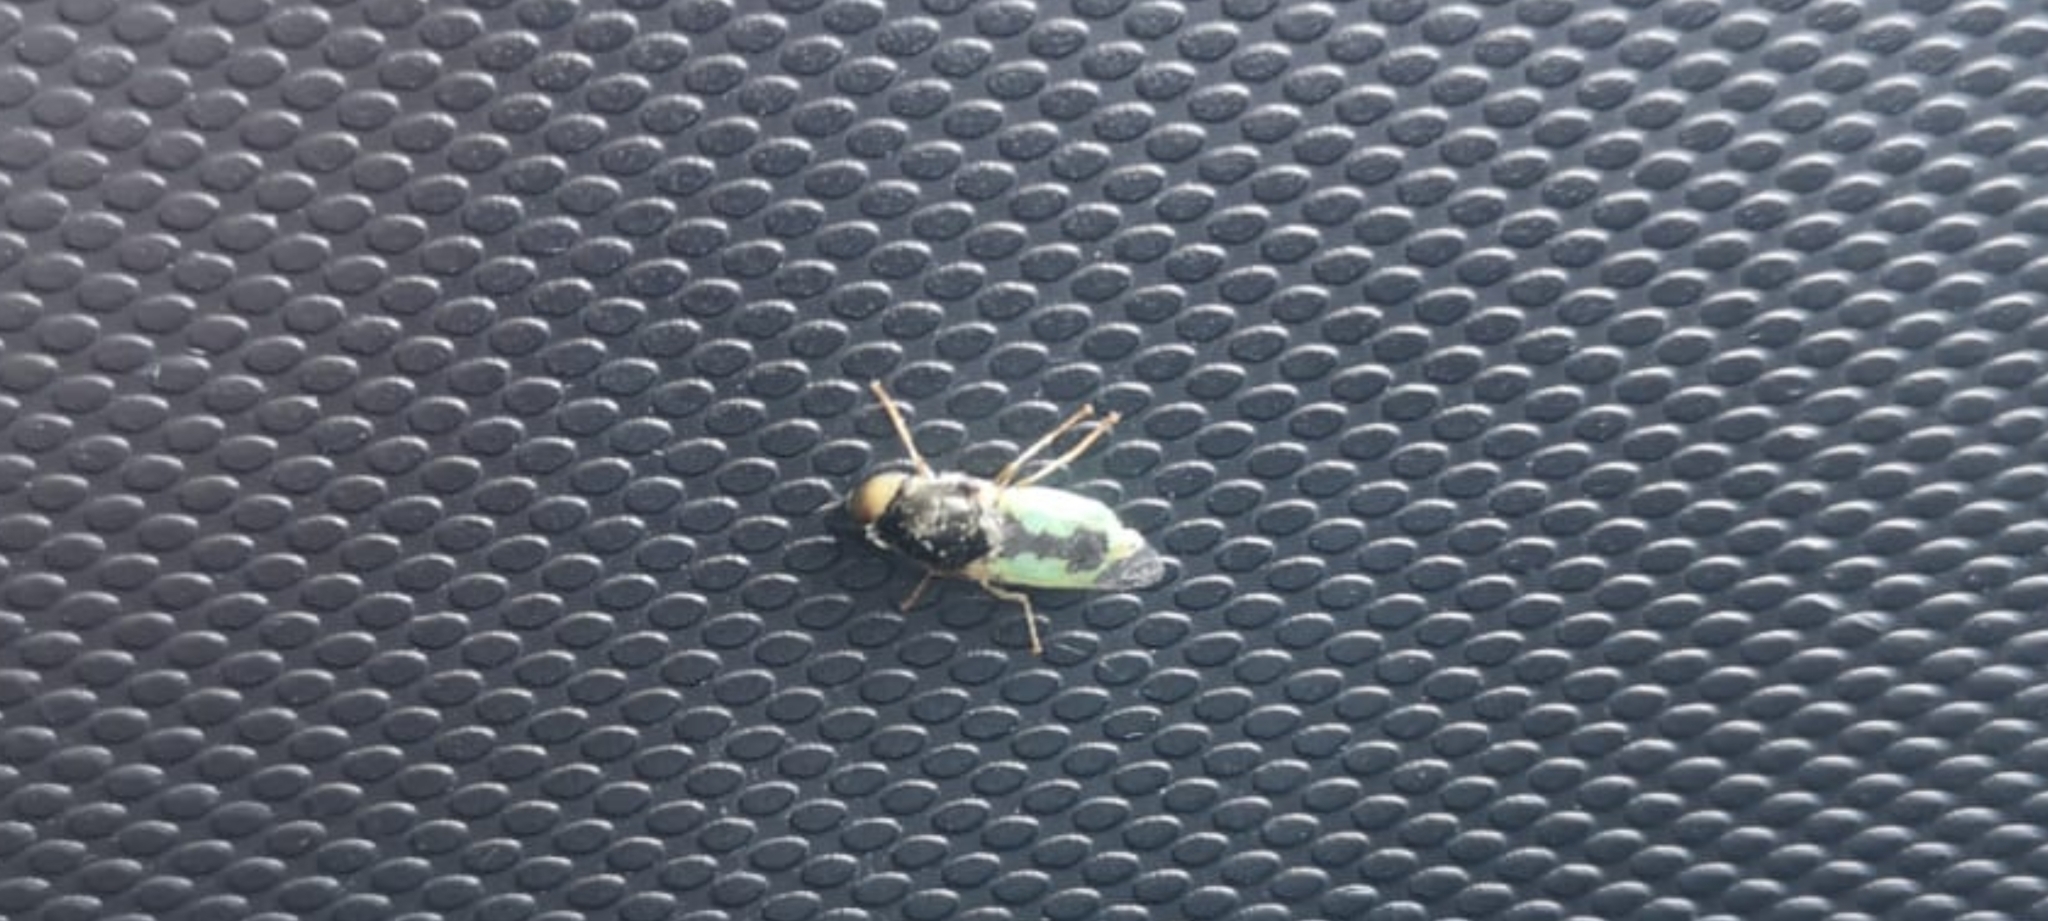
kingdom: Animalia
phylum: Arthropoda
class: Insecta
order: Diptera
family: Stratiomyidae
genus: Oplodontha
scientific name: Oplodontha viridula
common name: Common green colonel
